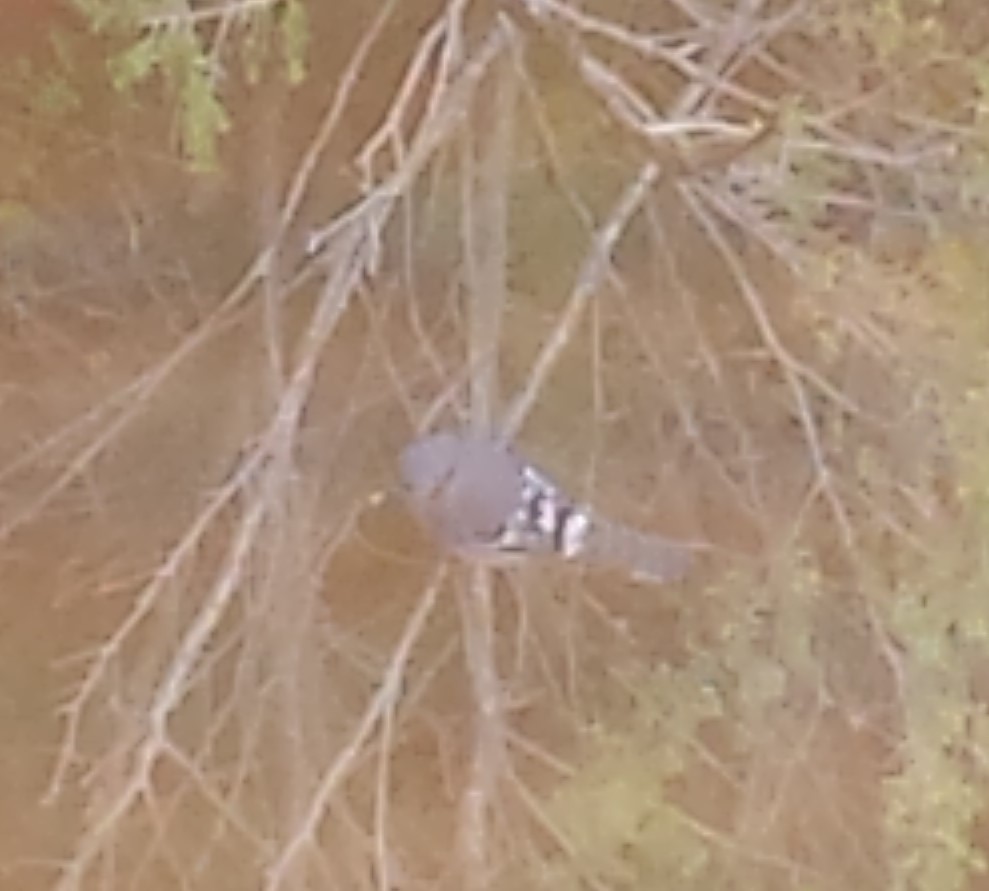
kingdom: Animalia
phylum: Chordata
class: Aves
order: Passeriformes
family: Corvidae
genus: Cyanocitta
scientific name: Cyanocitta cristata
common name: Blue jay
